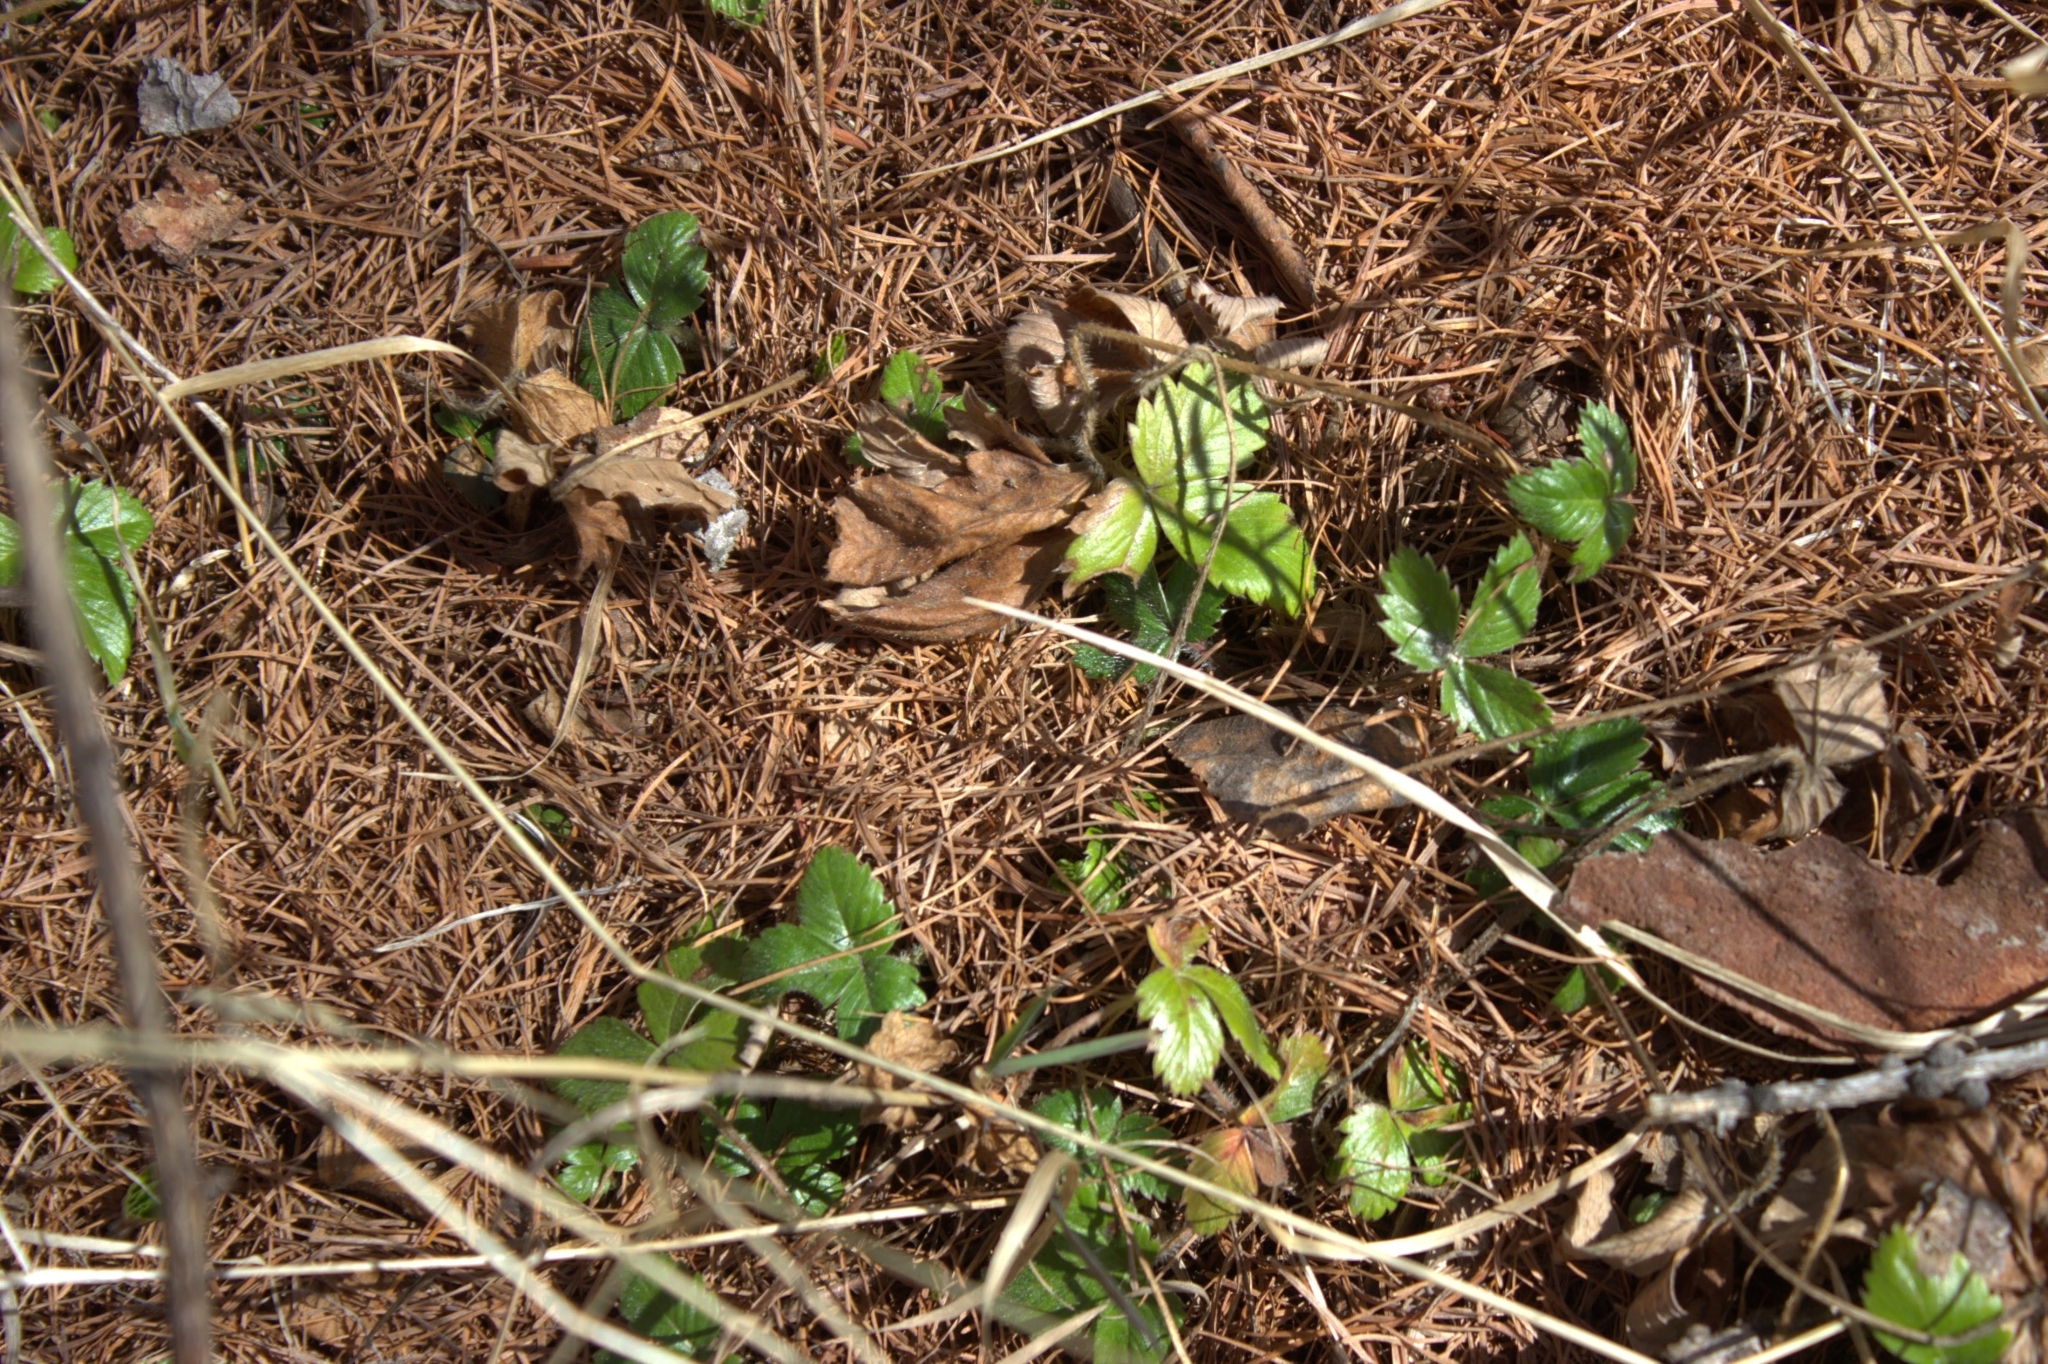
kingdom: Plantae
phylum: Tracheophyta
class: Magnoliopsida
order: Rosales
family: Rosaceae
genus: Fragaria
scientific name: Fragaria vesca
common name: Wild strawberry
